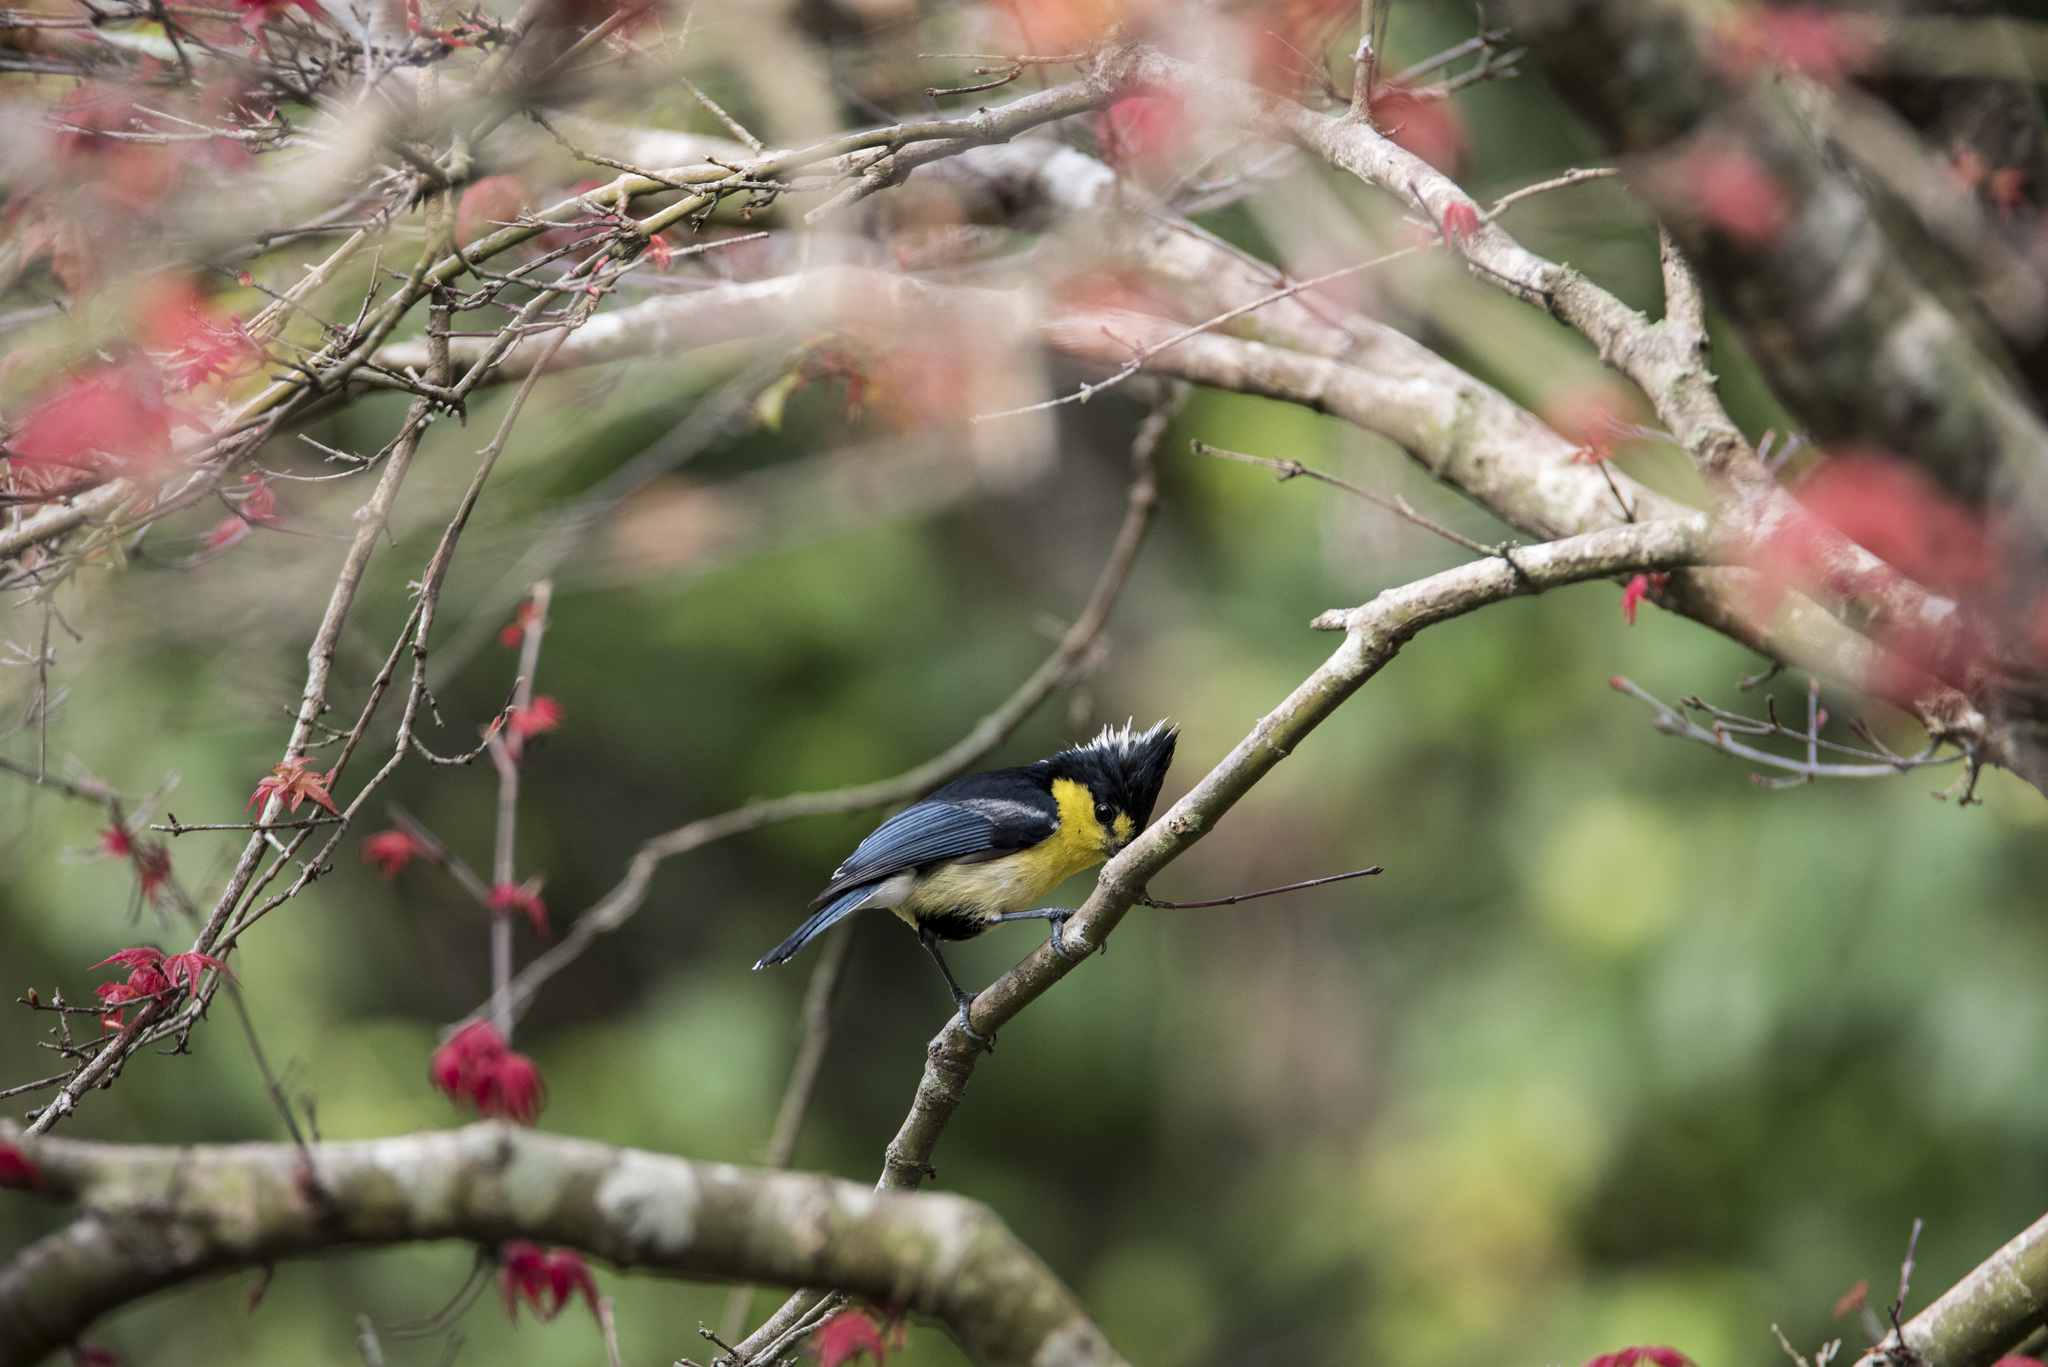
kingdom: Animalia
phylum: Chordata
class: Aves
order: Passeriformes
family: Paridae
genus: Parus
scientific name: Parus holsti
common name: Yellow tit
